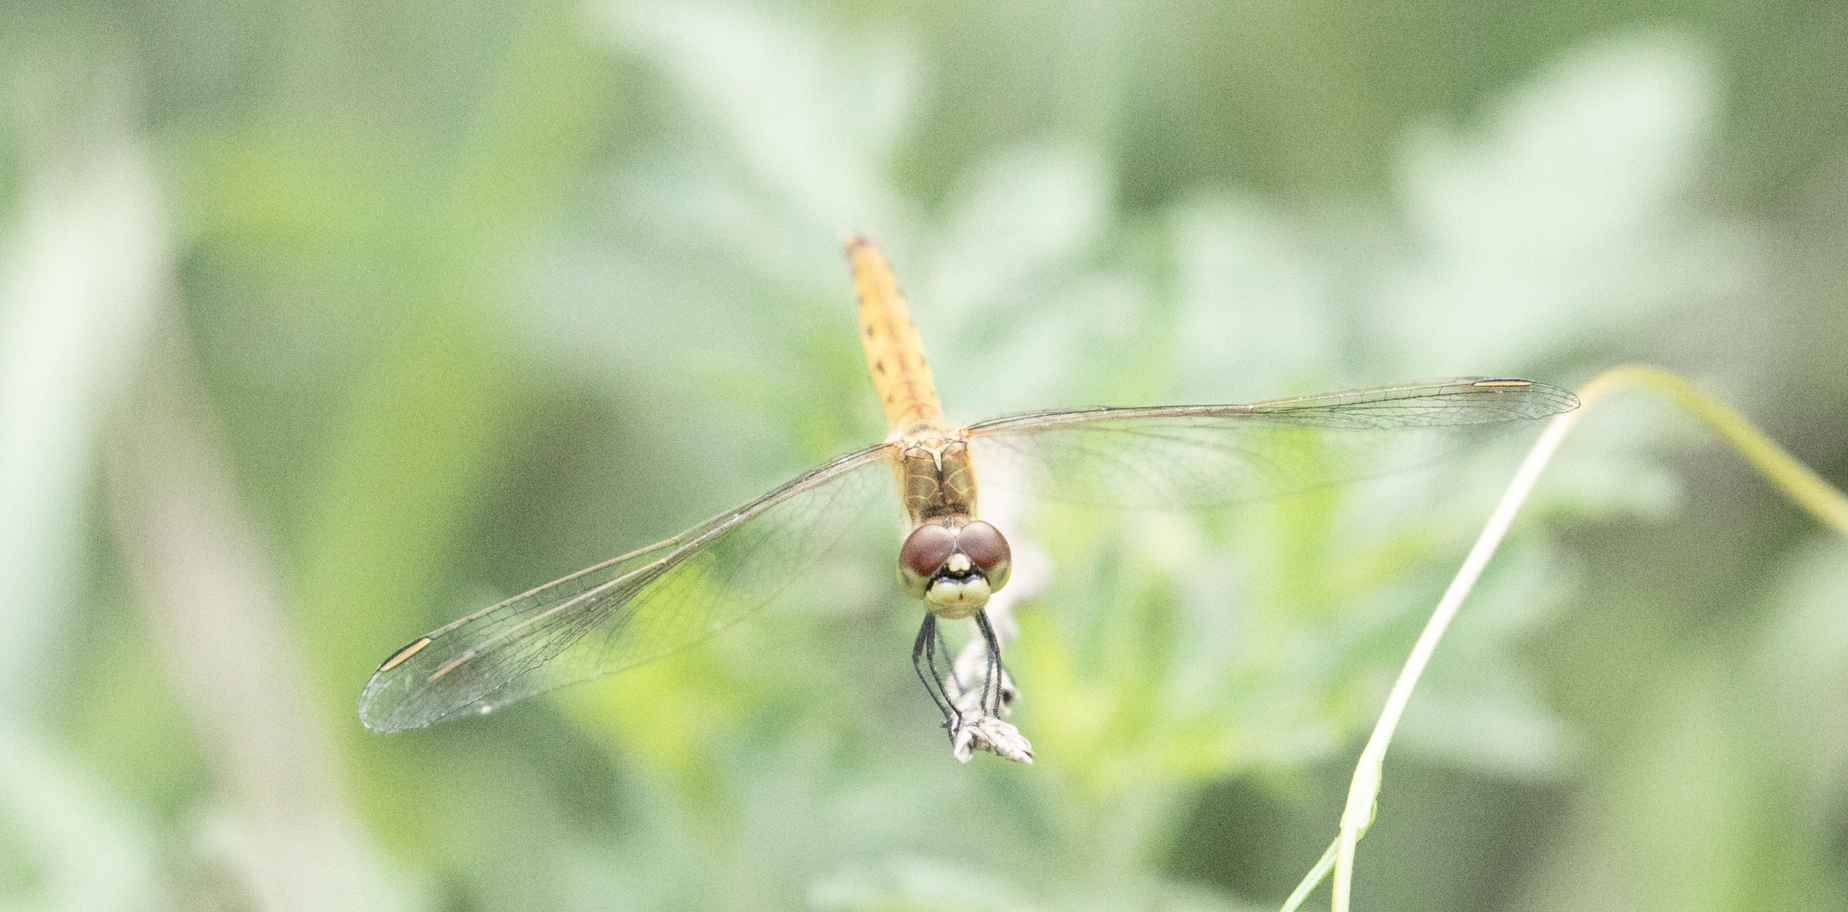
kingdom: Animalia
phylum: Arthropoda
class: Insecta
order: Odonata
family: Libellulidae
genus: Sympetrum
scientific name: Sympetrum depressiusculum
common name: Spotted darter
